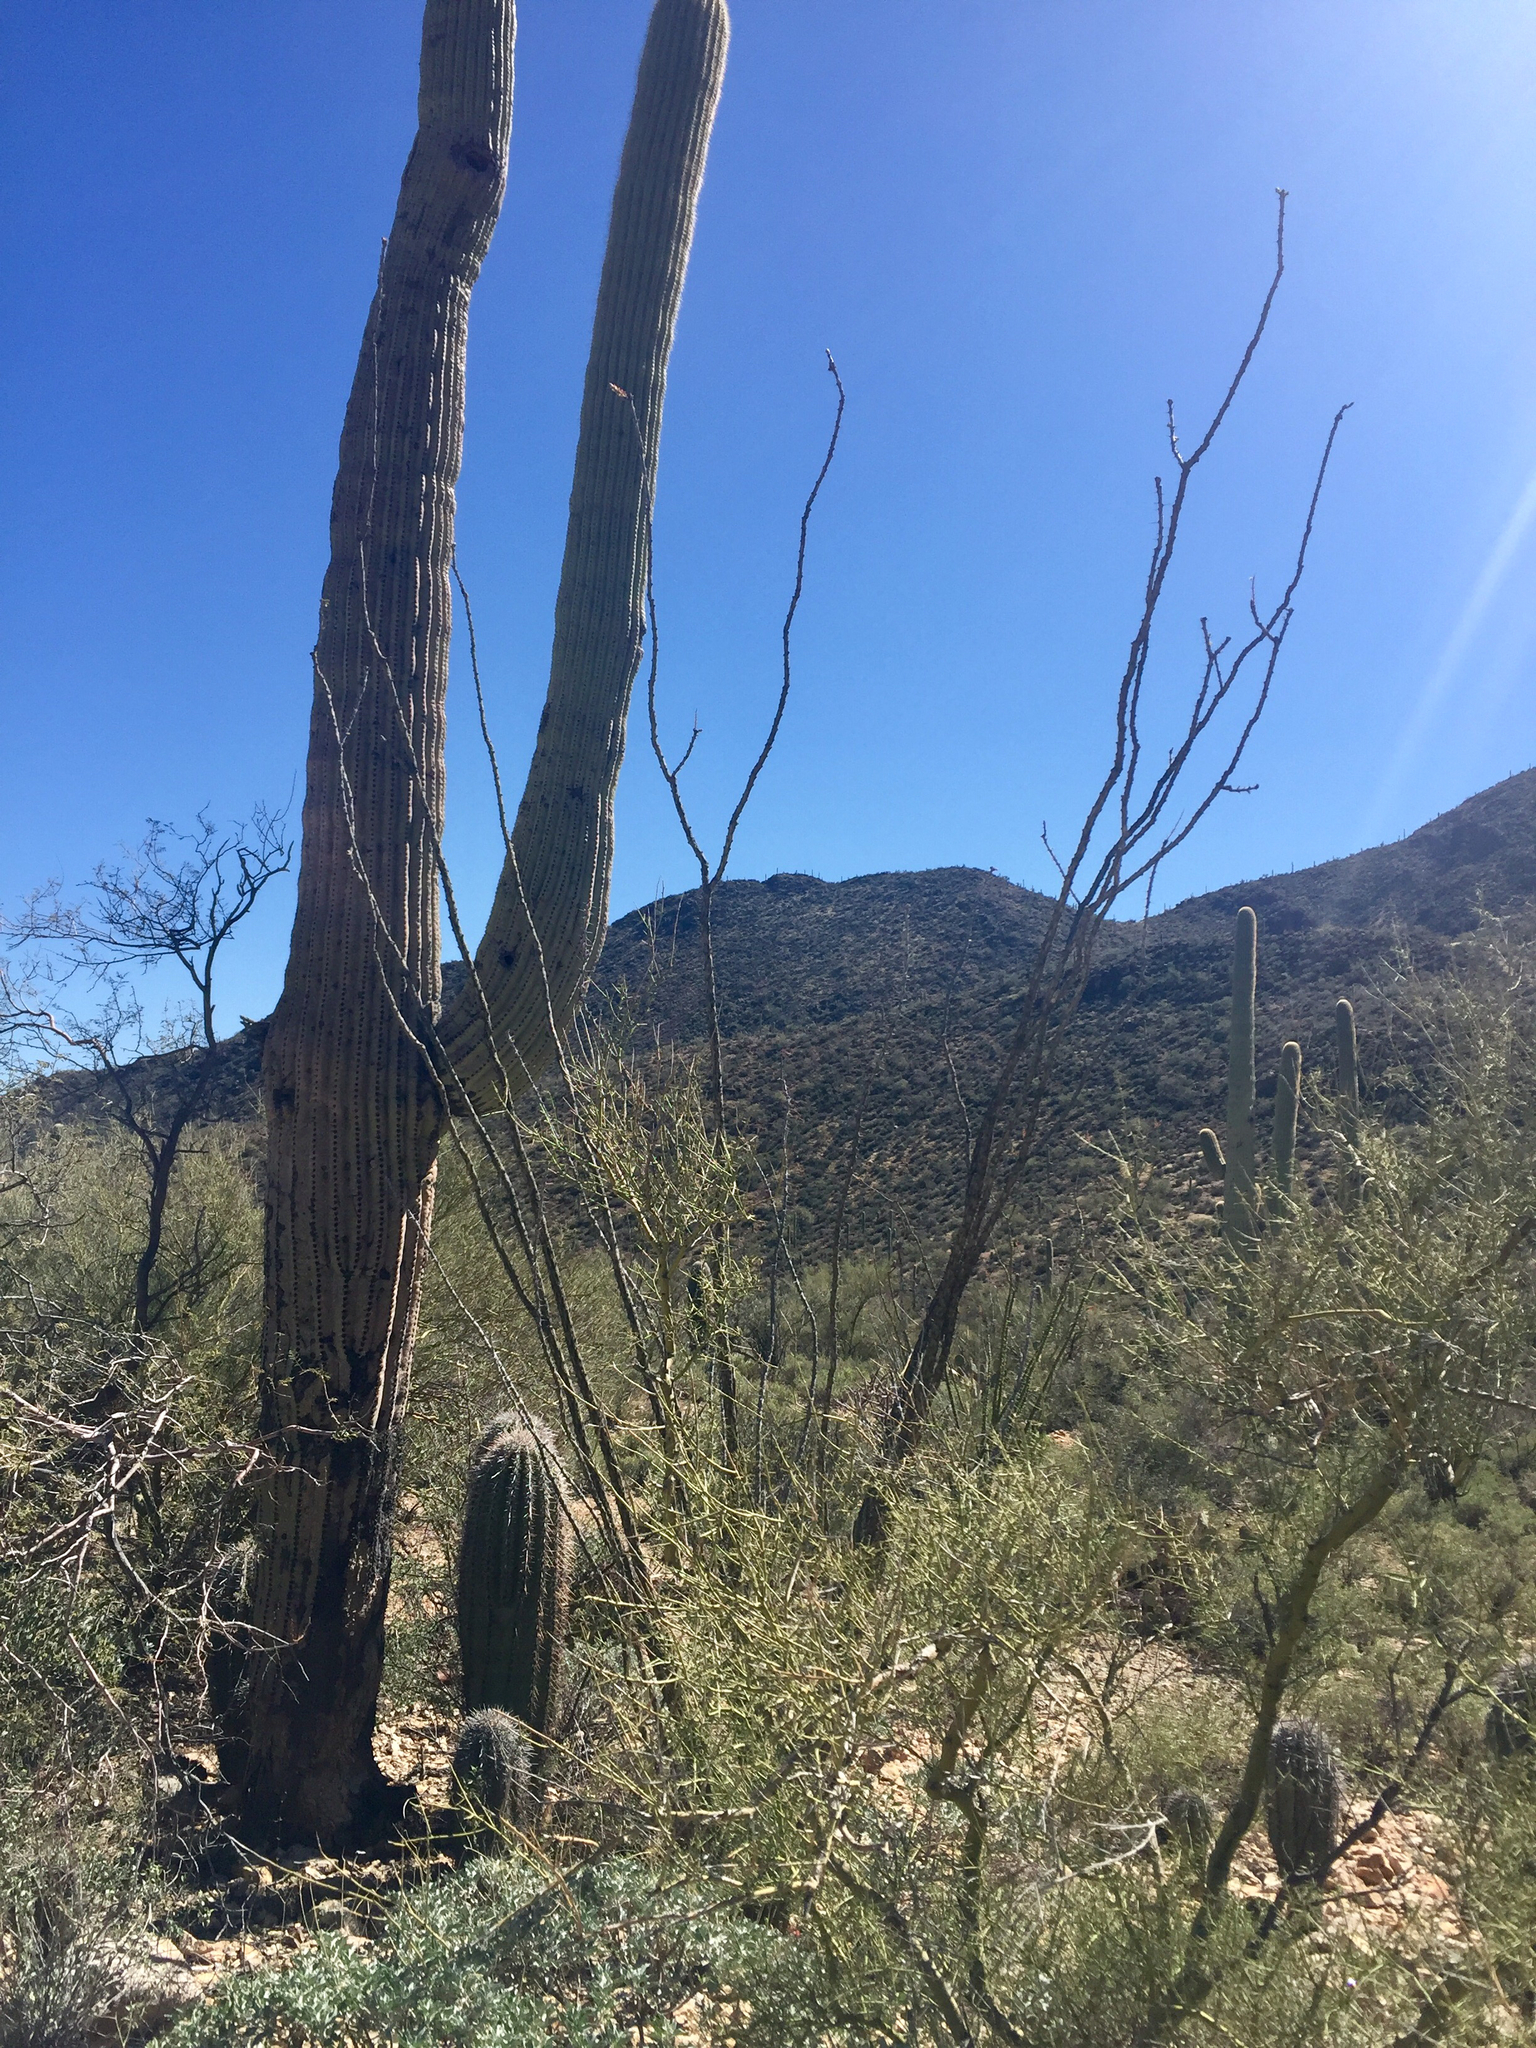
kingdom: Plantae
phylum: Tracheophyta
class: Magnoliopsida
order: Ericales
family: Fouquieriaceae
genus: Fouquieria
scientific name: Fouquieria splendens
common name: Vine-cactus
